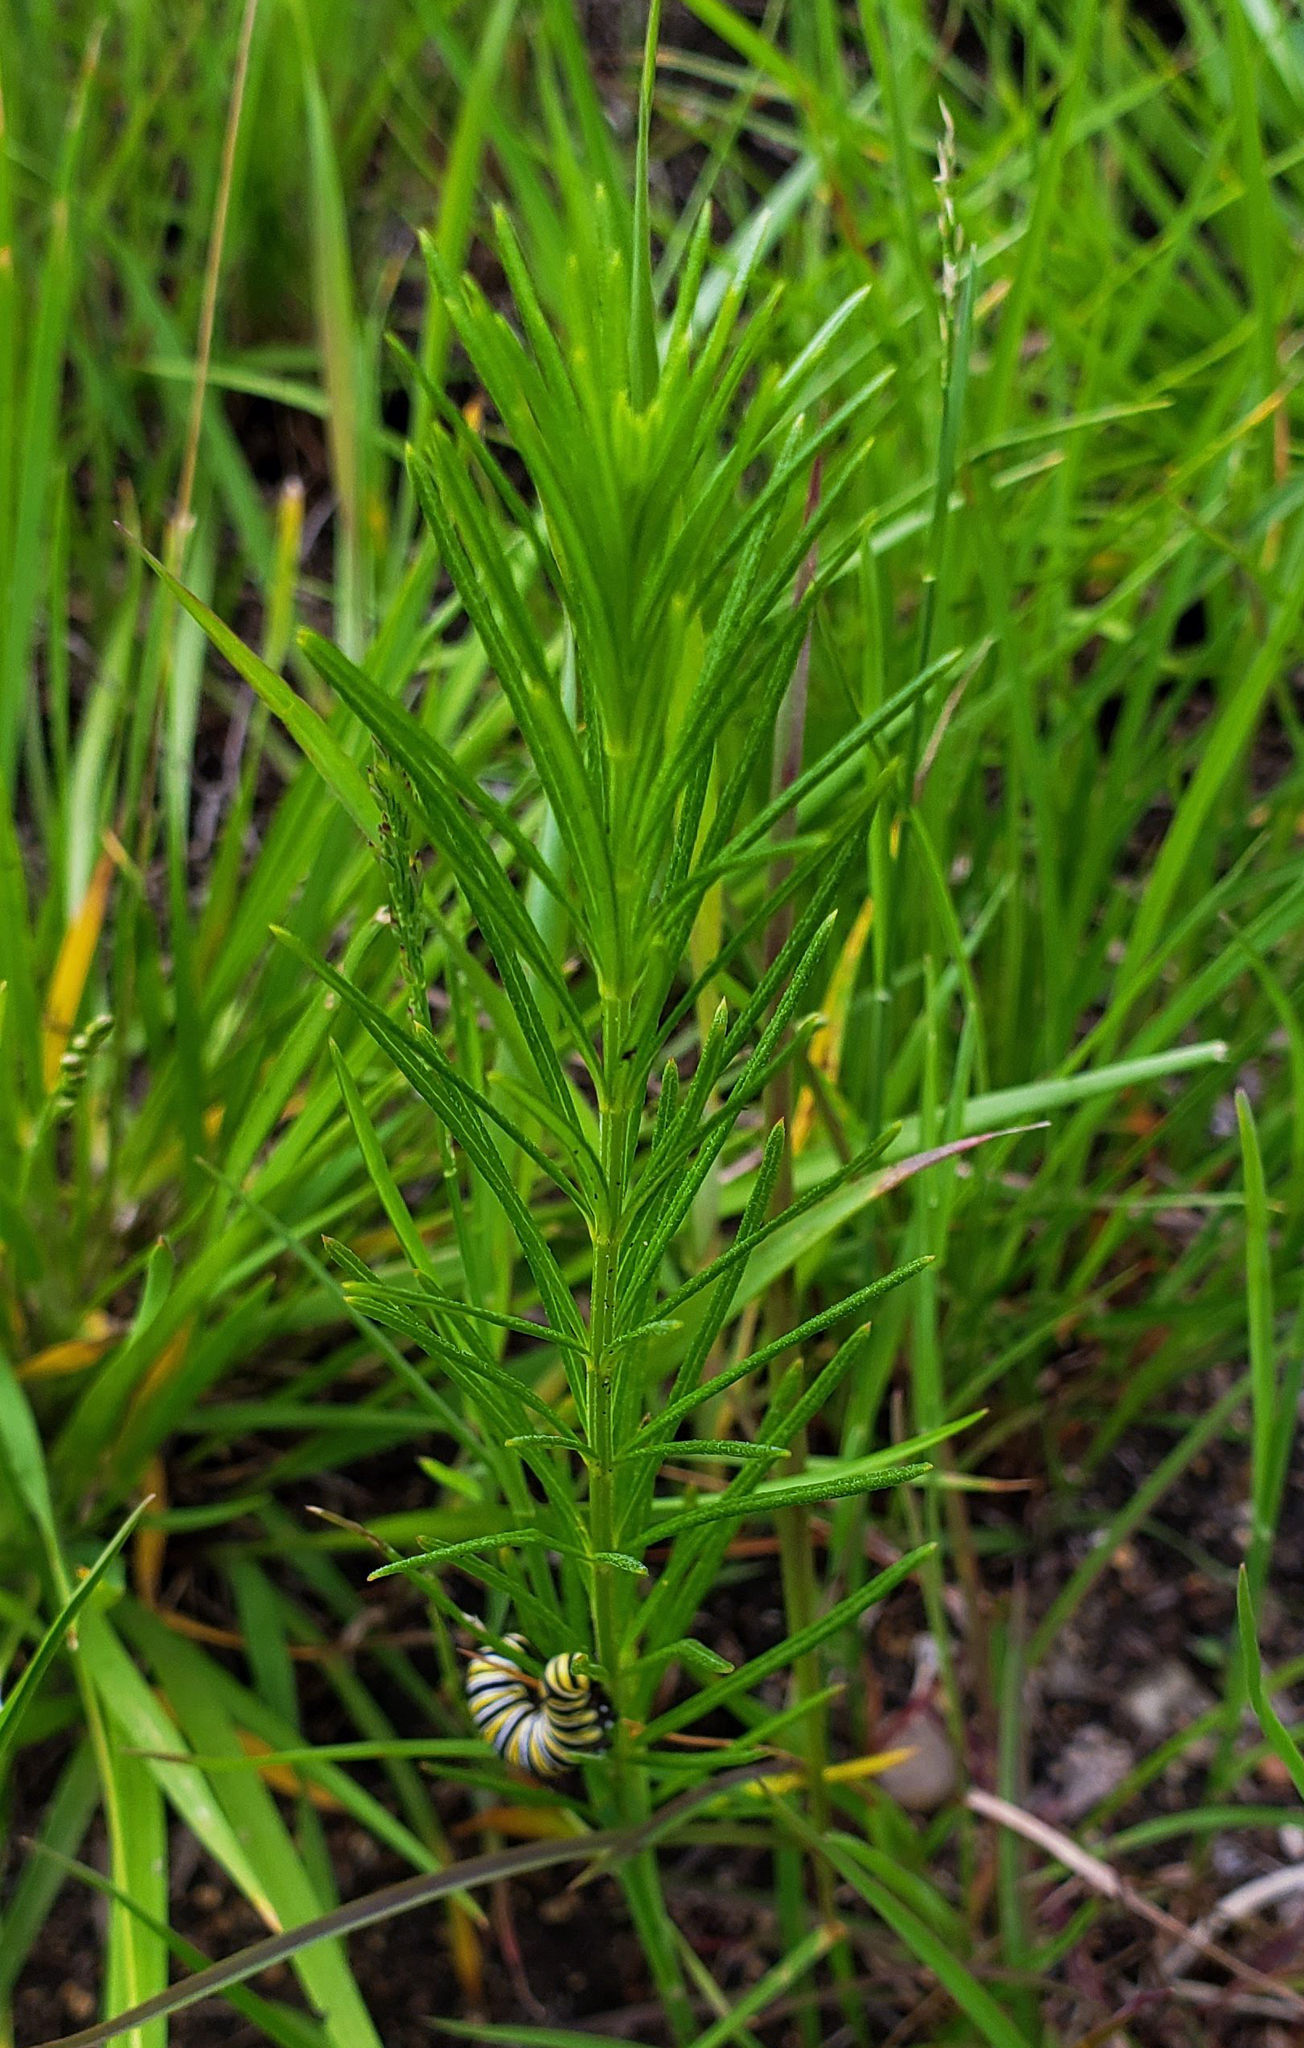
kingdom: Plantae
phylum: Tracheophyta
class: Magnoliopsida
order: Gentianales
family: Apocynaceae
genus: Asclepias
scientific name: Asclepias verticillata
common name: Eastern whorled milkweed
